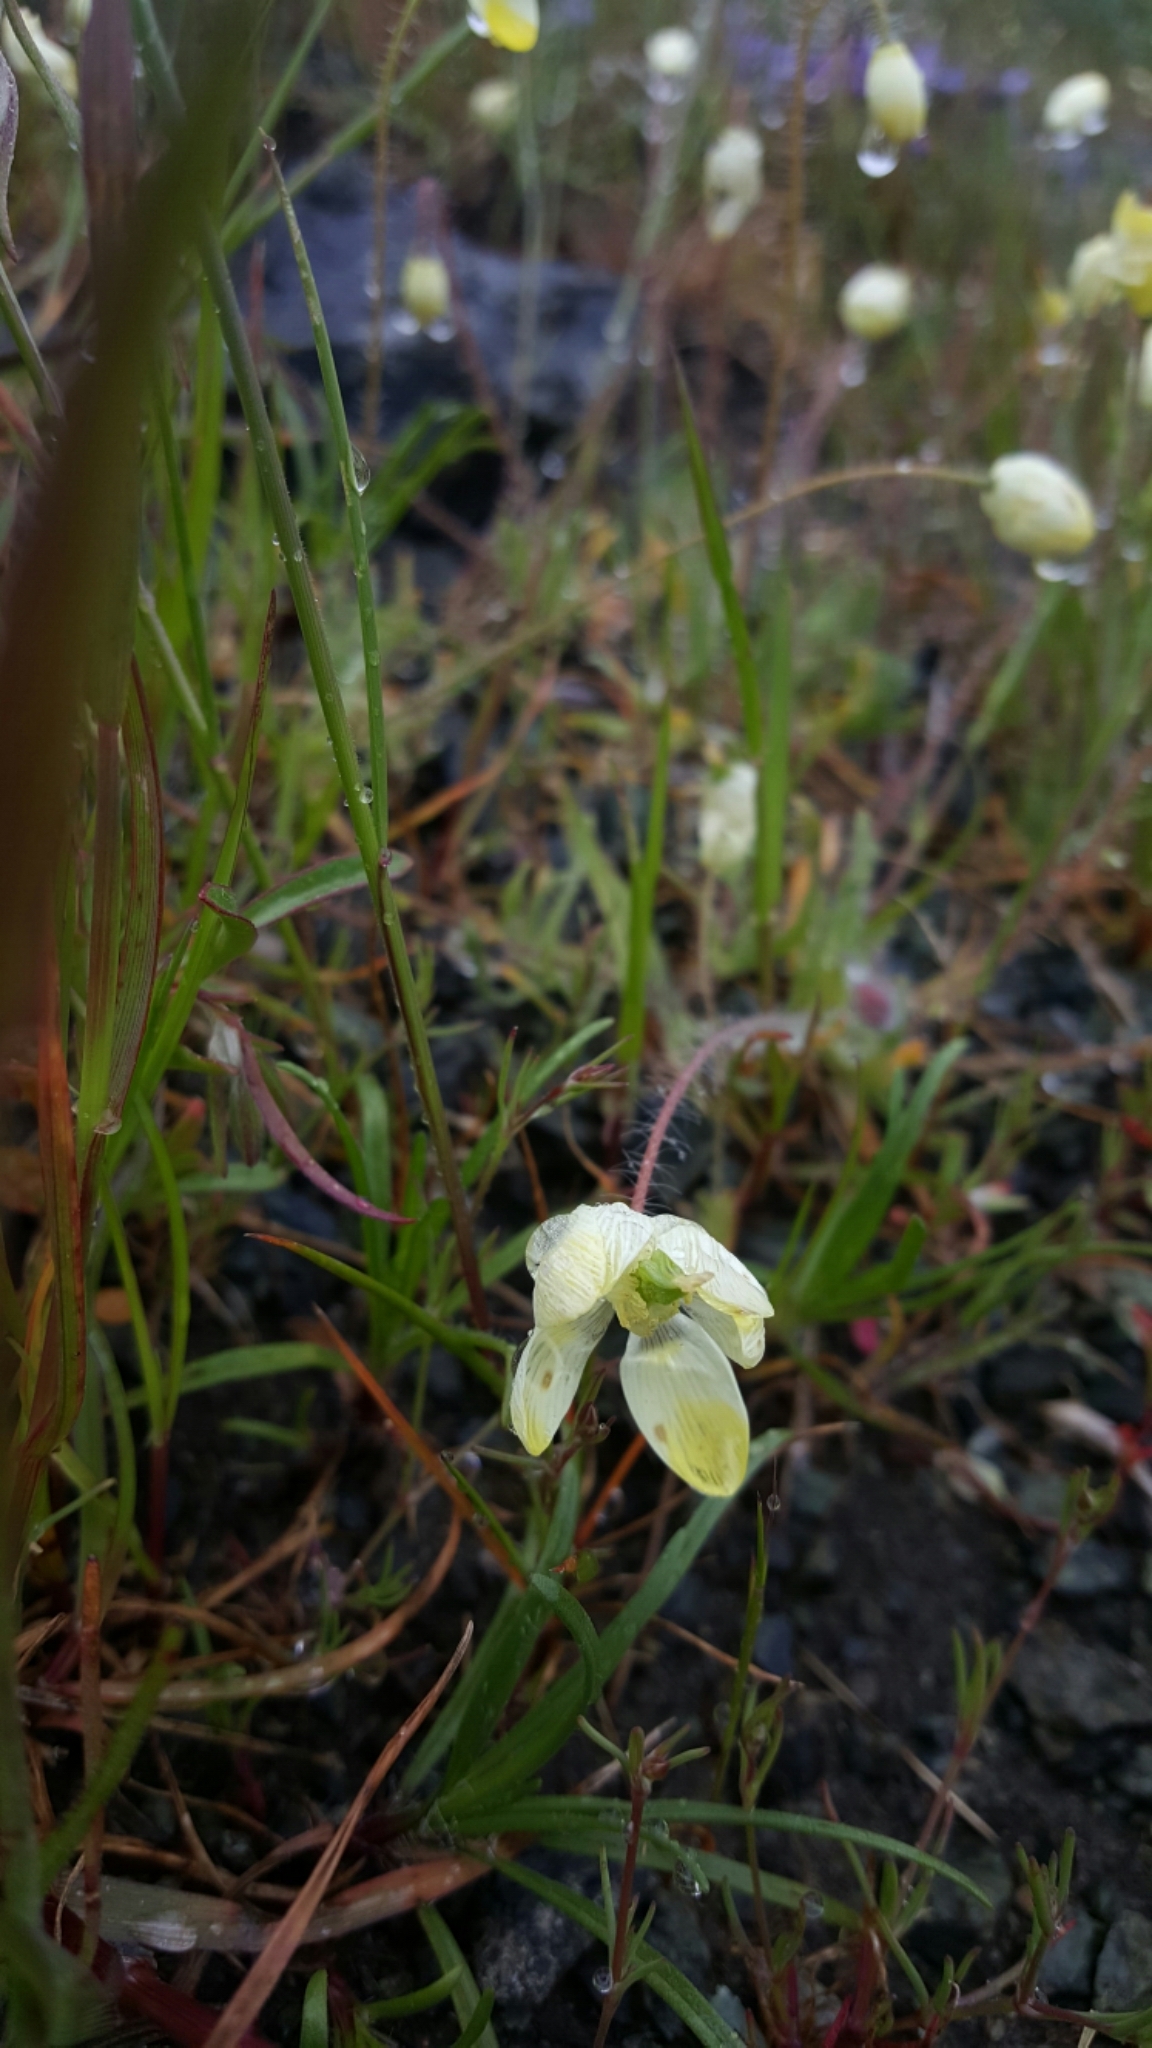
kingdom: Plantae
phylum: Tracheophyta
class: Magnoliopsida
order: Ranunculales
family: Papaveraceae
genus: Platystemon
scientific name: Platystemon californicus
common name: Cream-cups
